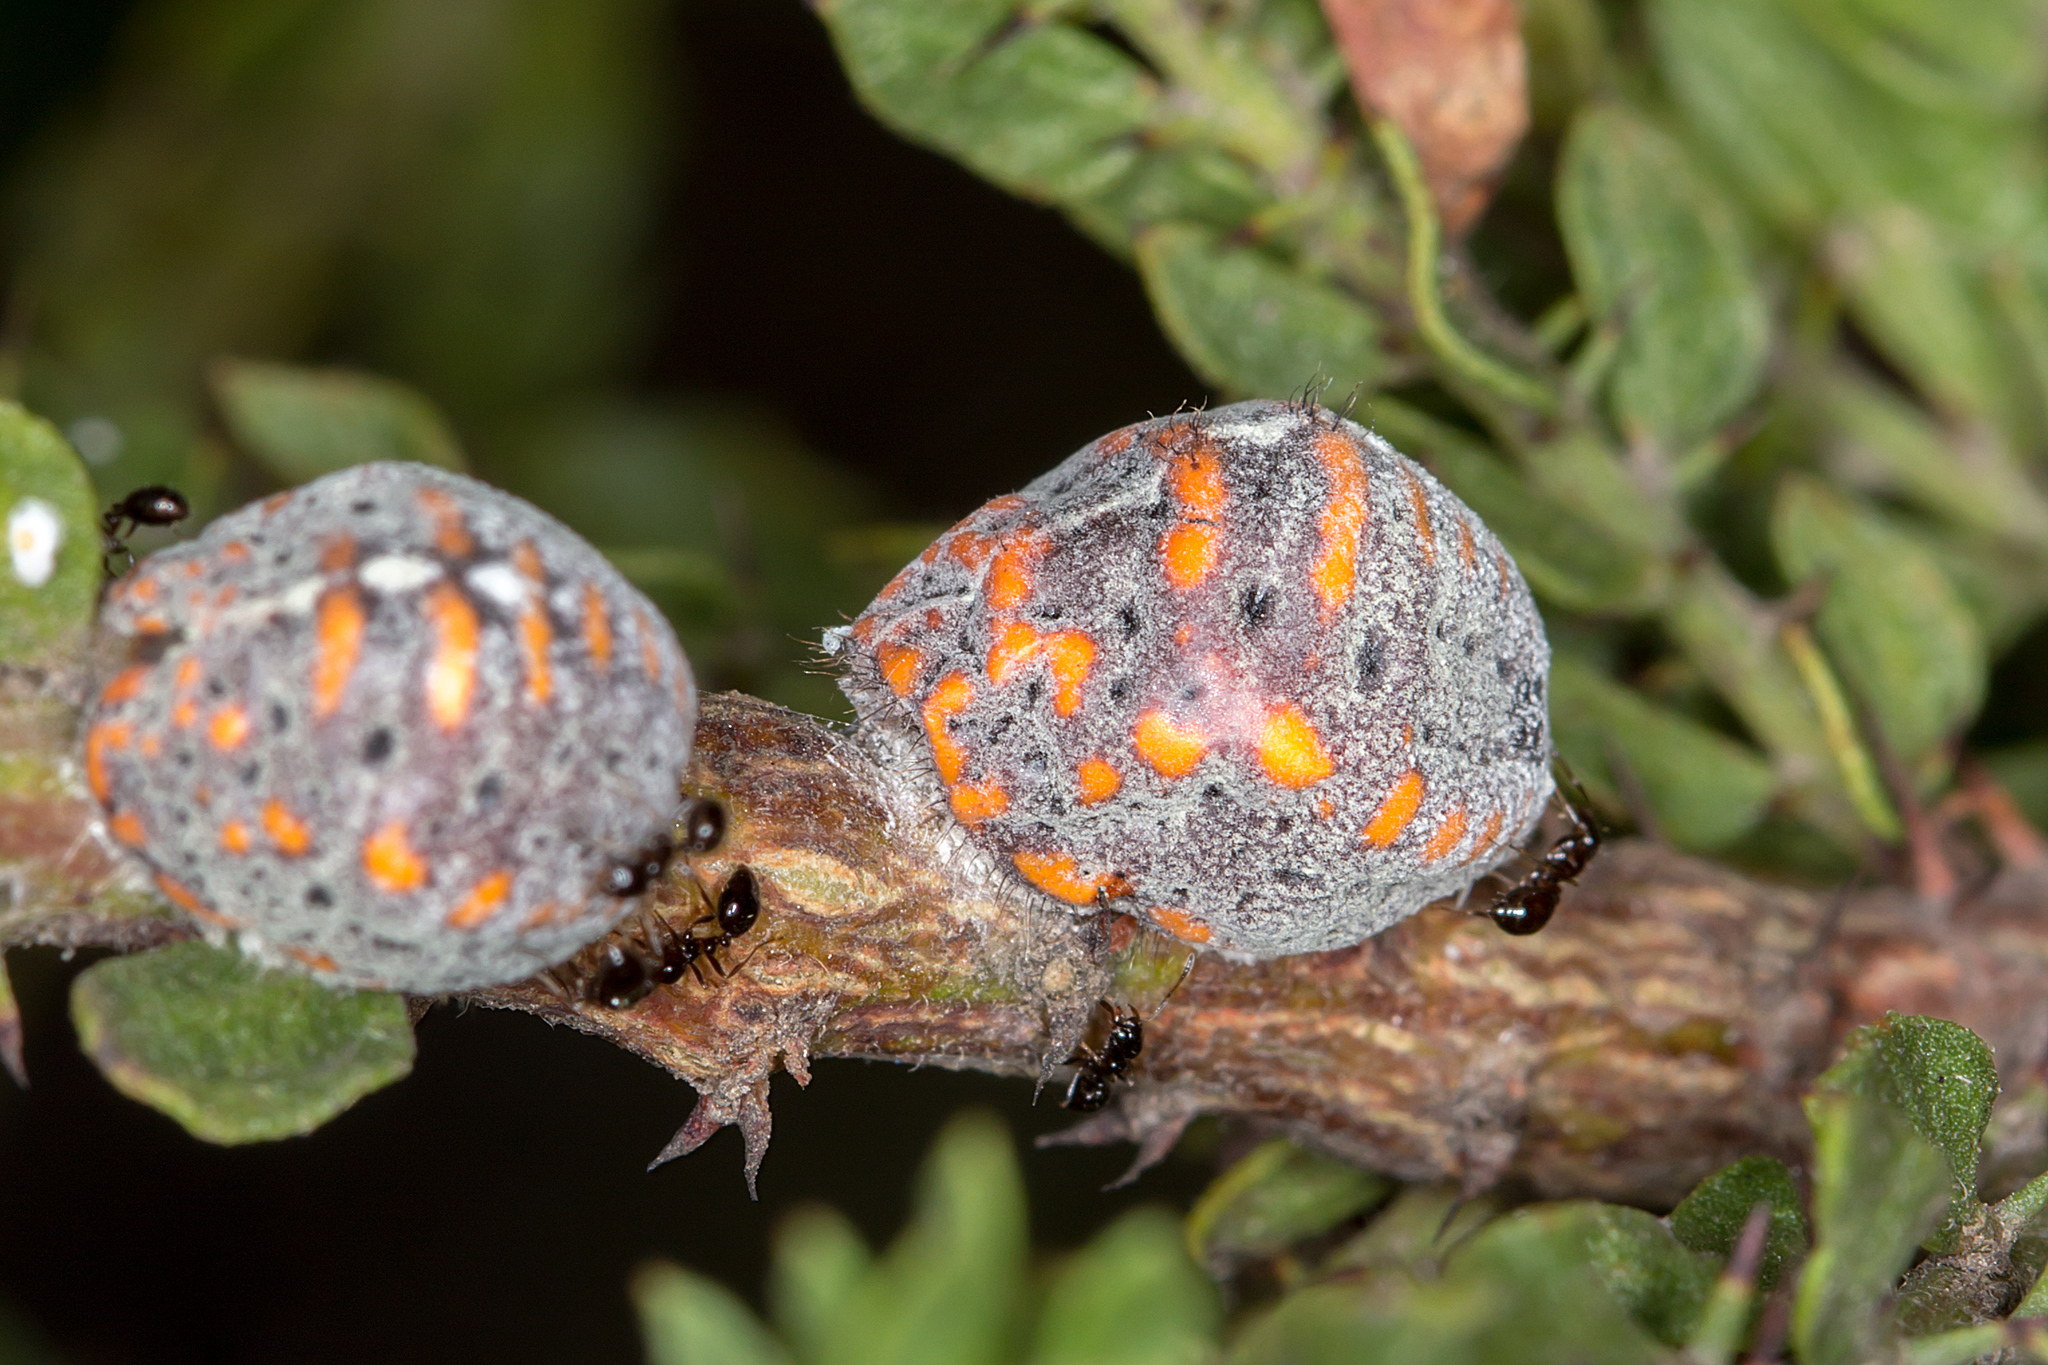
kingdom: Animalia
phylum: Arthropoda
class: Insecta
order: Hemiptera
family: Margarodidae
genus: Icerya
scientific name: Icerya
